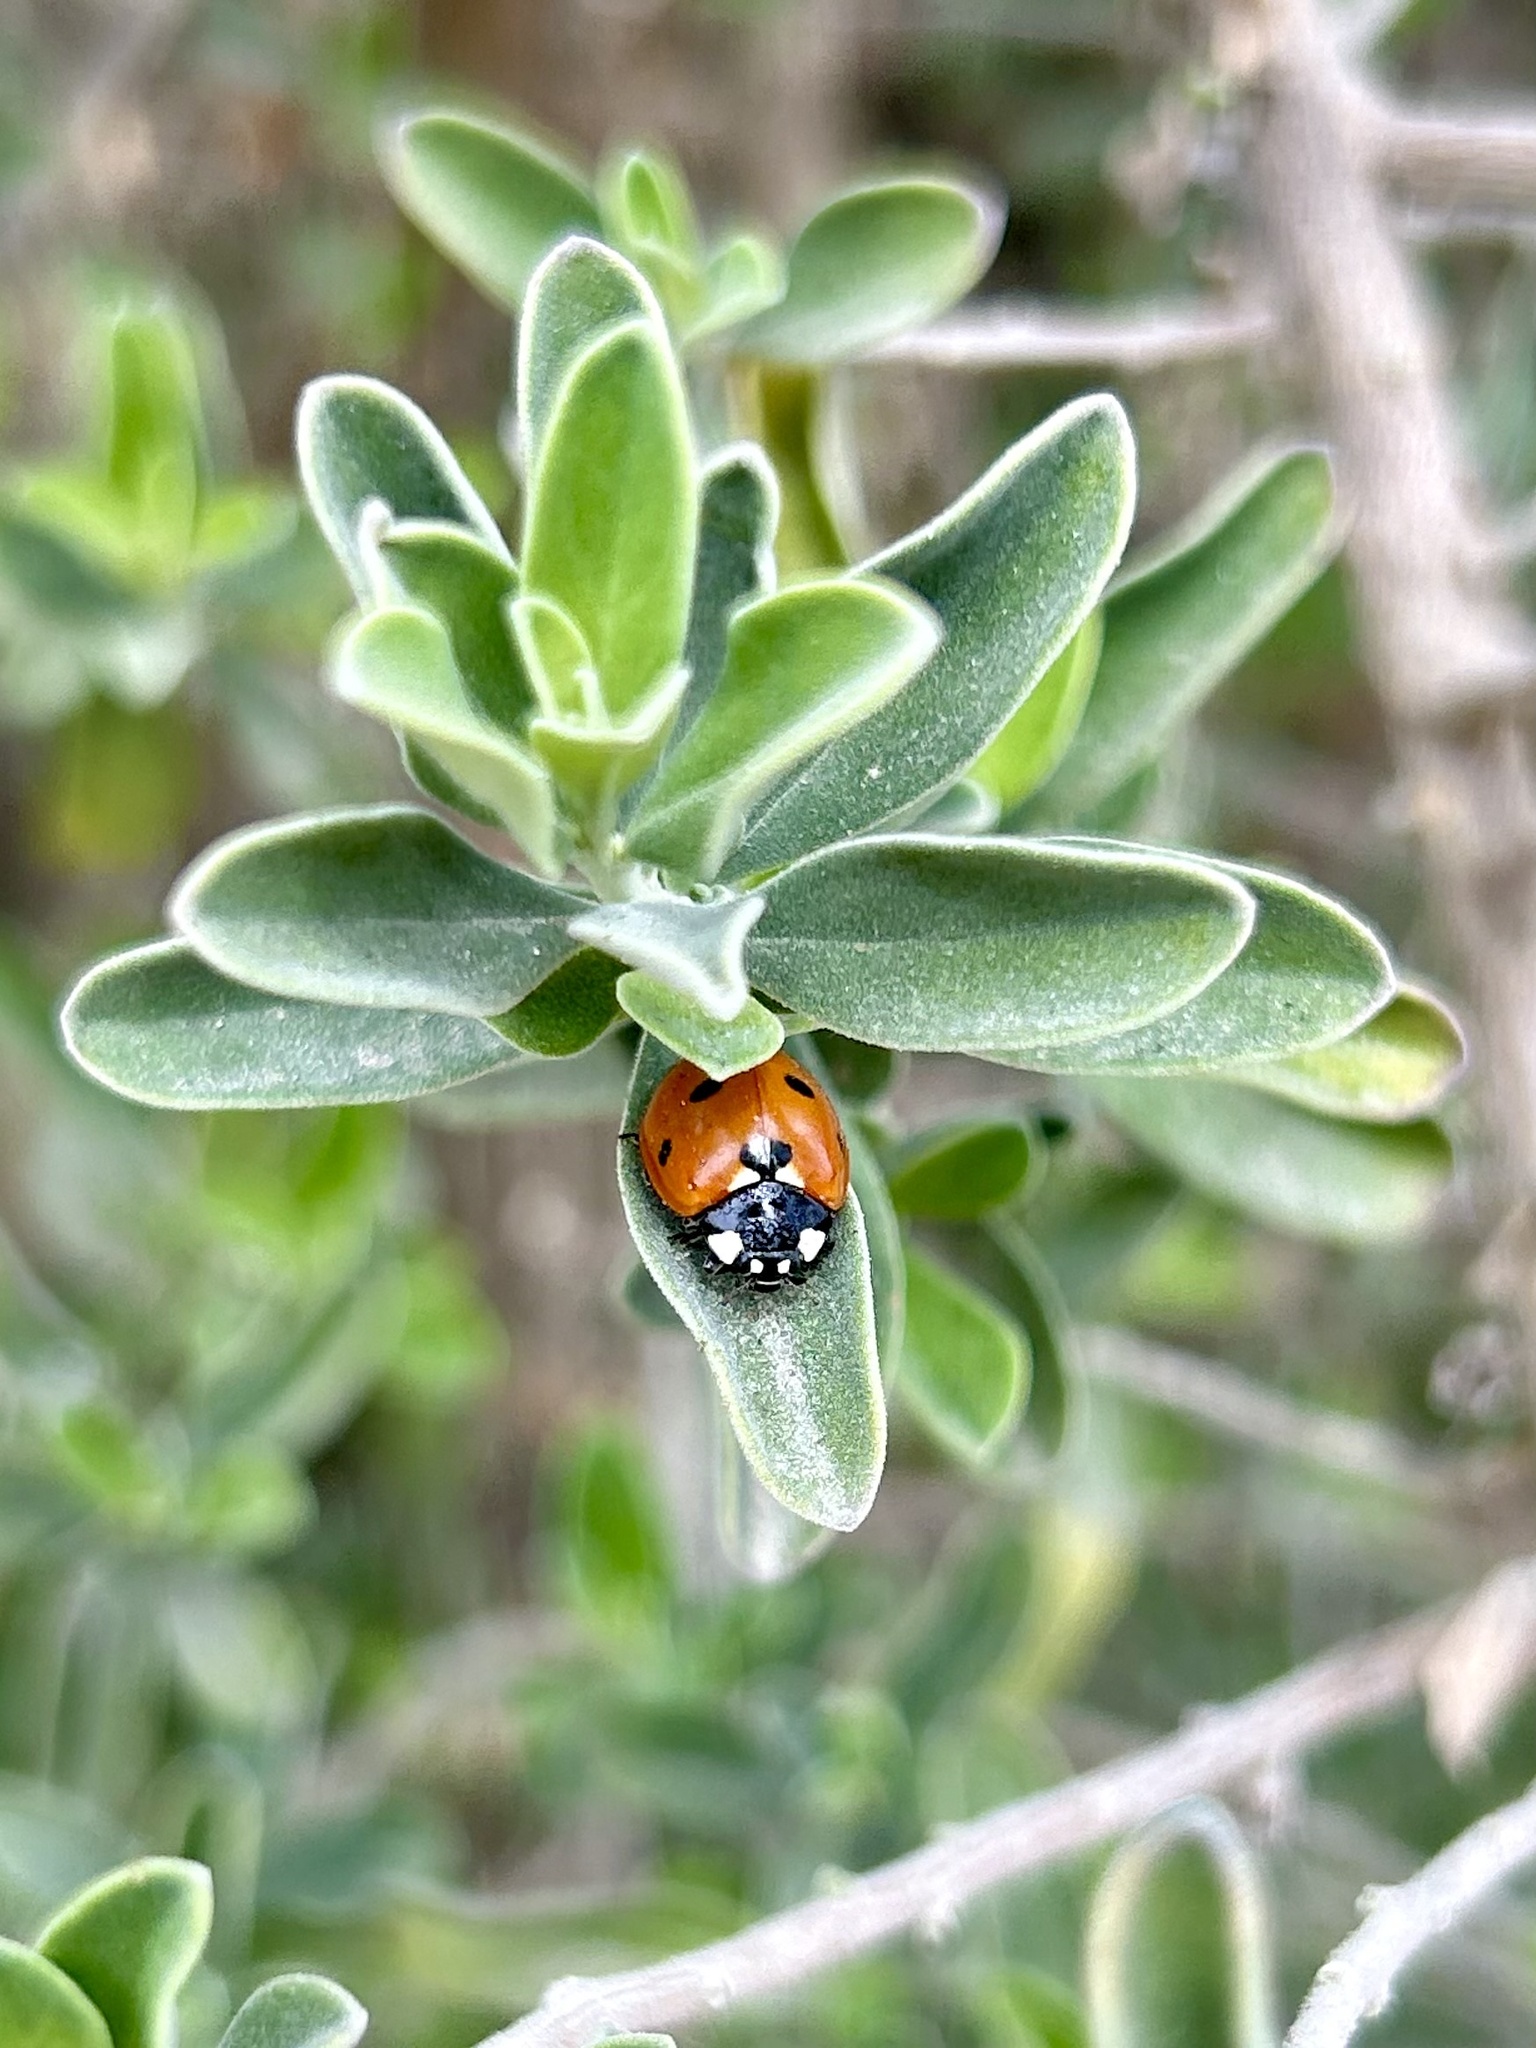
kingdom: Animalia
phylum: Arthropoda
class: Insecta
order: Coleoptera
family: Coccinellidae
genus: Coccinella
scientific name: Coccinella septempunctata
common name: Sevenspotted lady beetle
